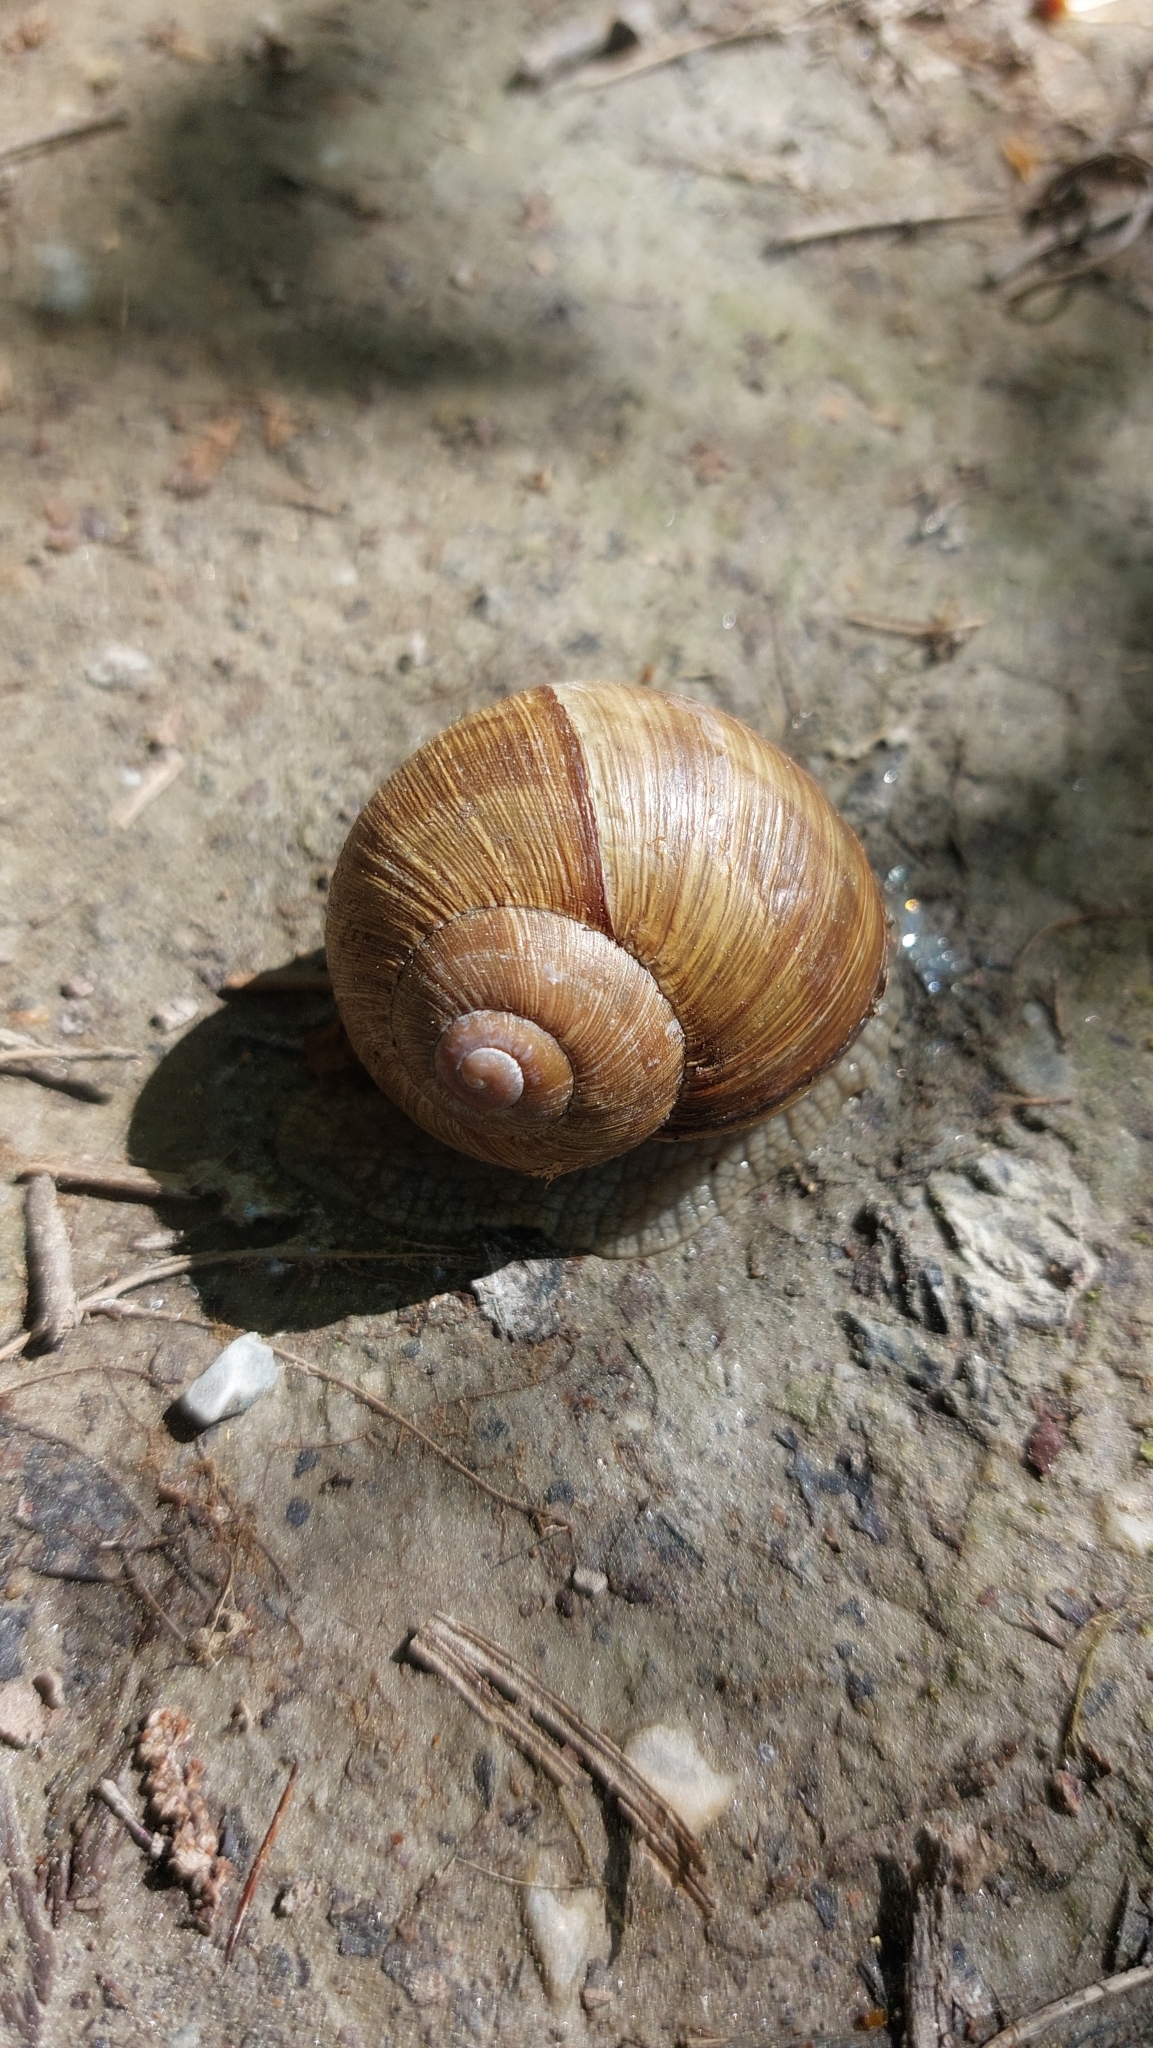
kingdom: Animalia
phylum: Mollusca
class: Gastropoda
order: Stylommatophora
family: Helicidae
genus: Helix
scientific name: Helix pomatia
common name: Roman snail
